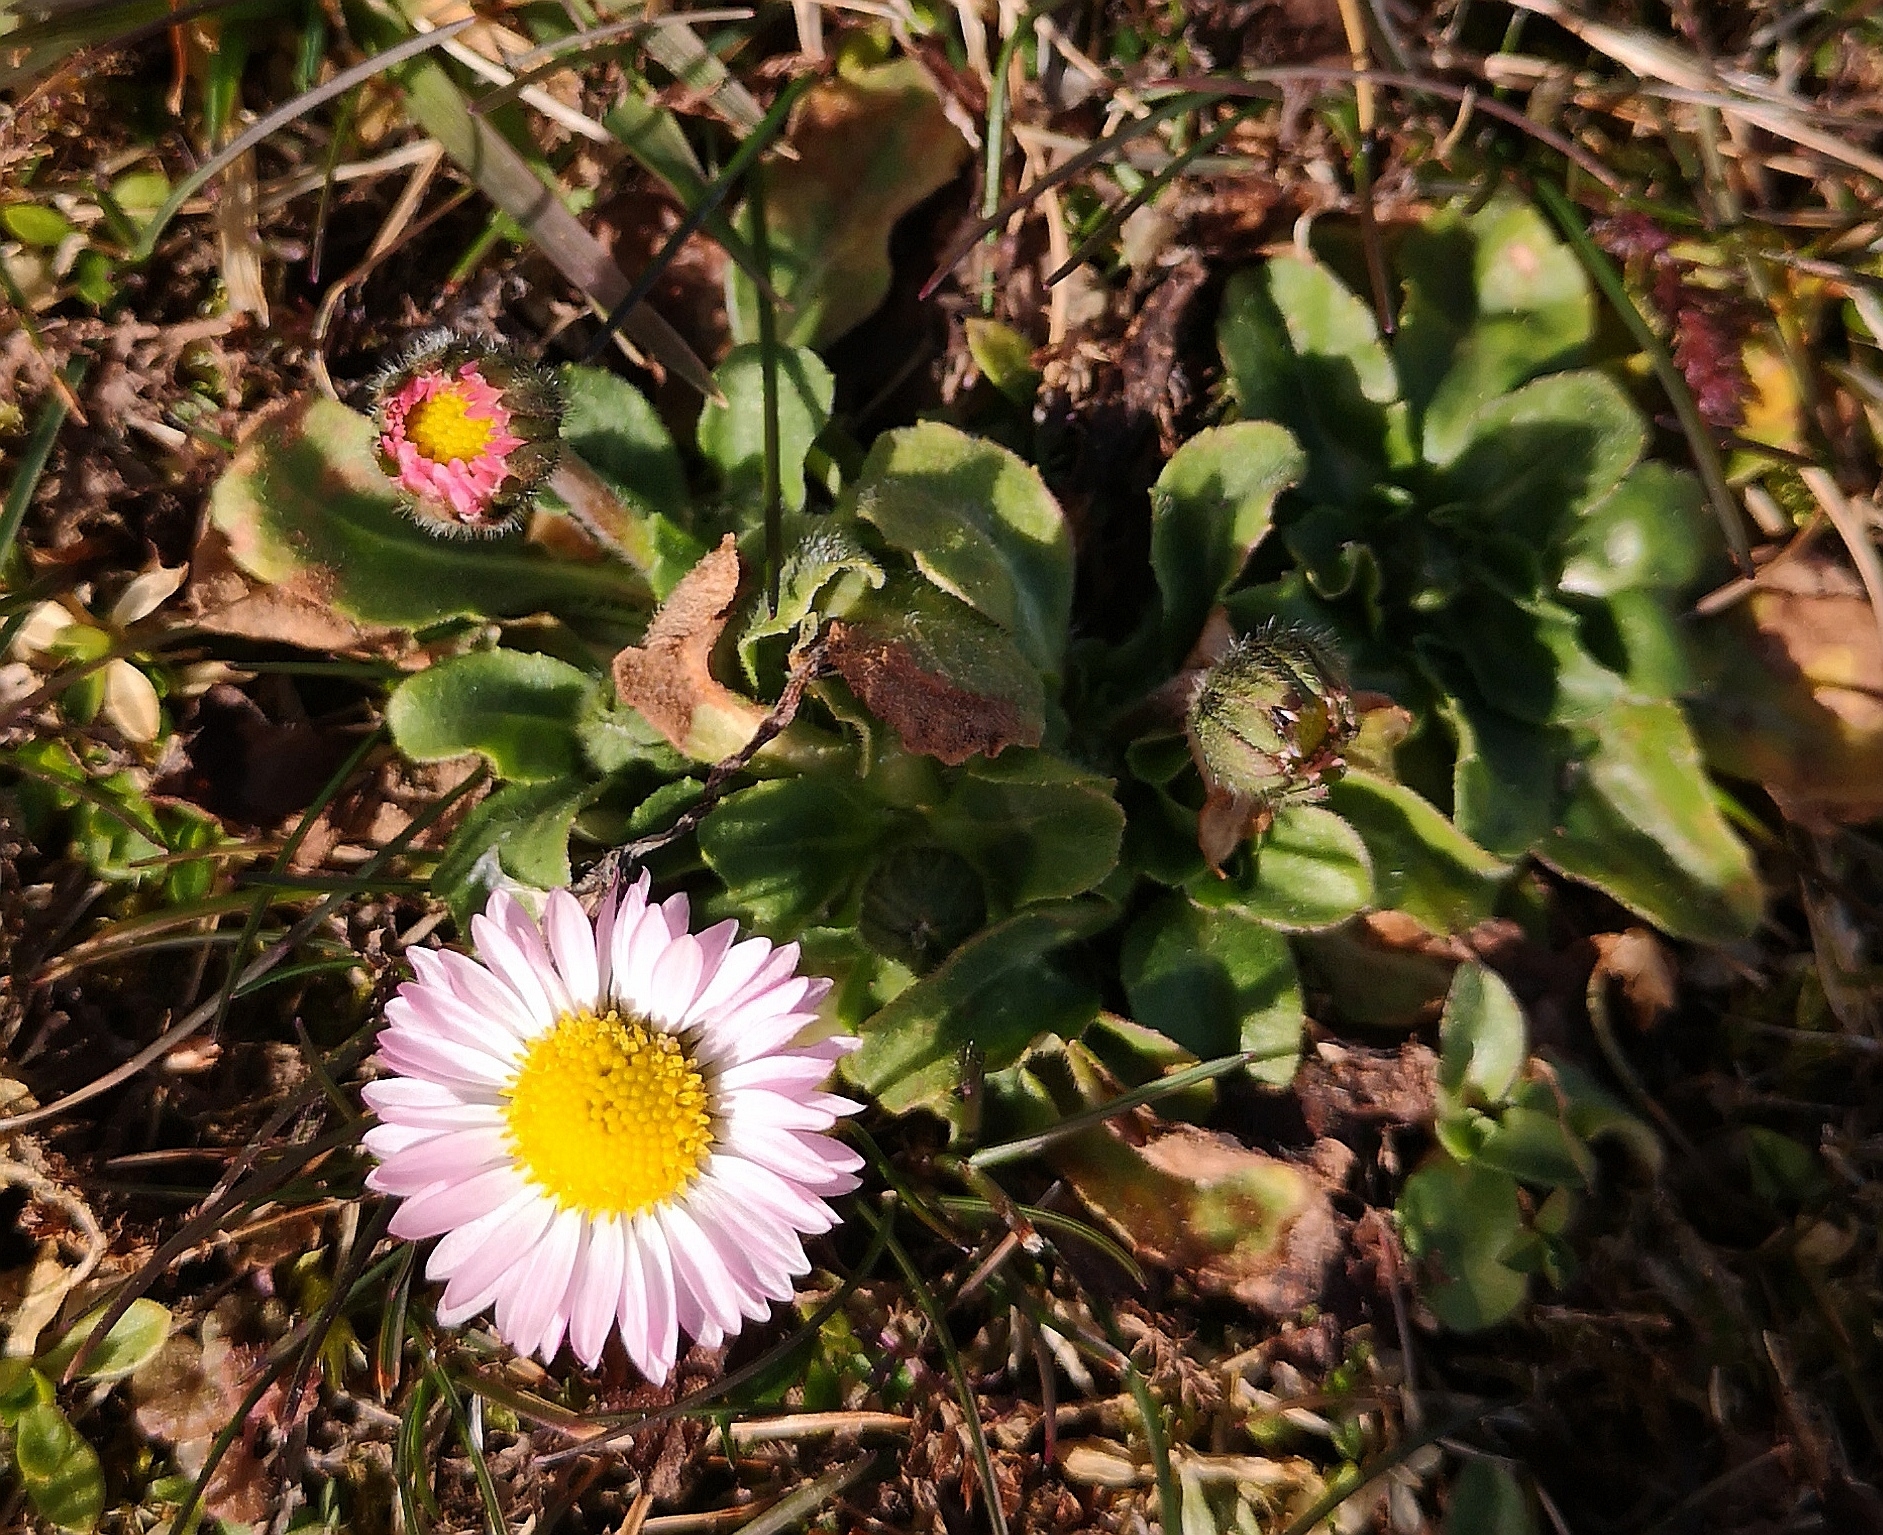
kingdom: Plantae
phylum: Tracheophyta
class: Magnoliopsida
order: Asterales
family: Asteraceae
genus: Bellis
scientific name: Bellis perennis
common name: Lawndaisy
